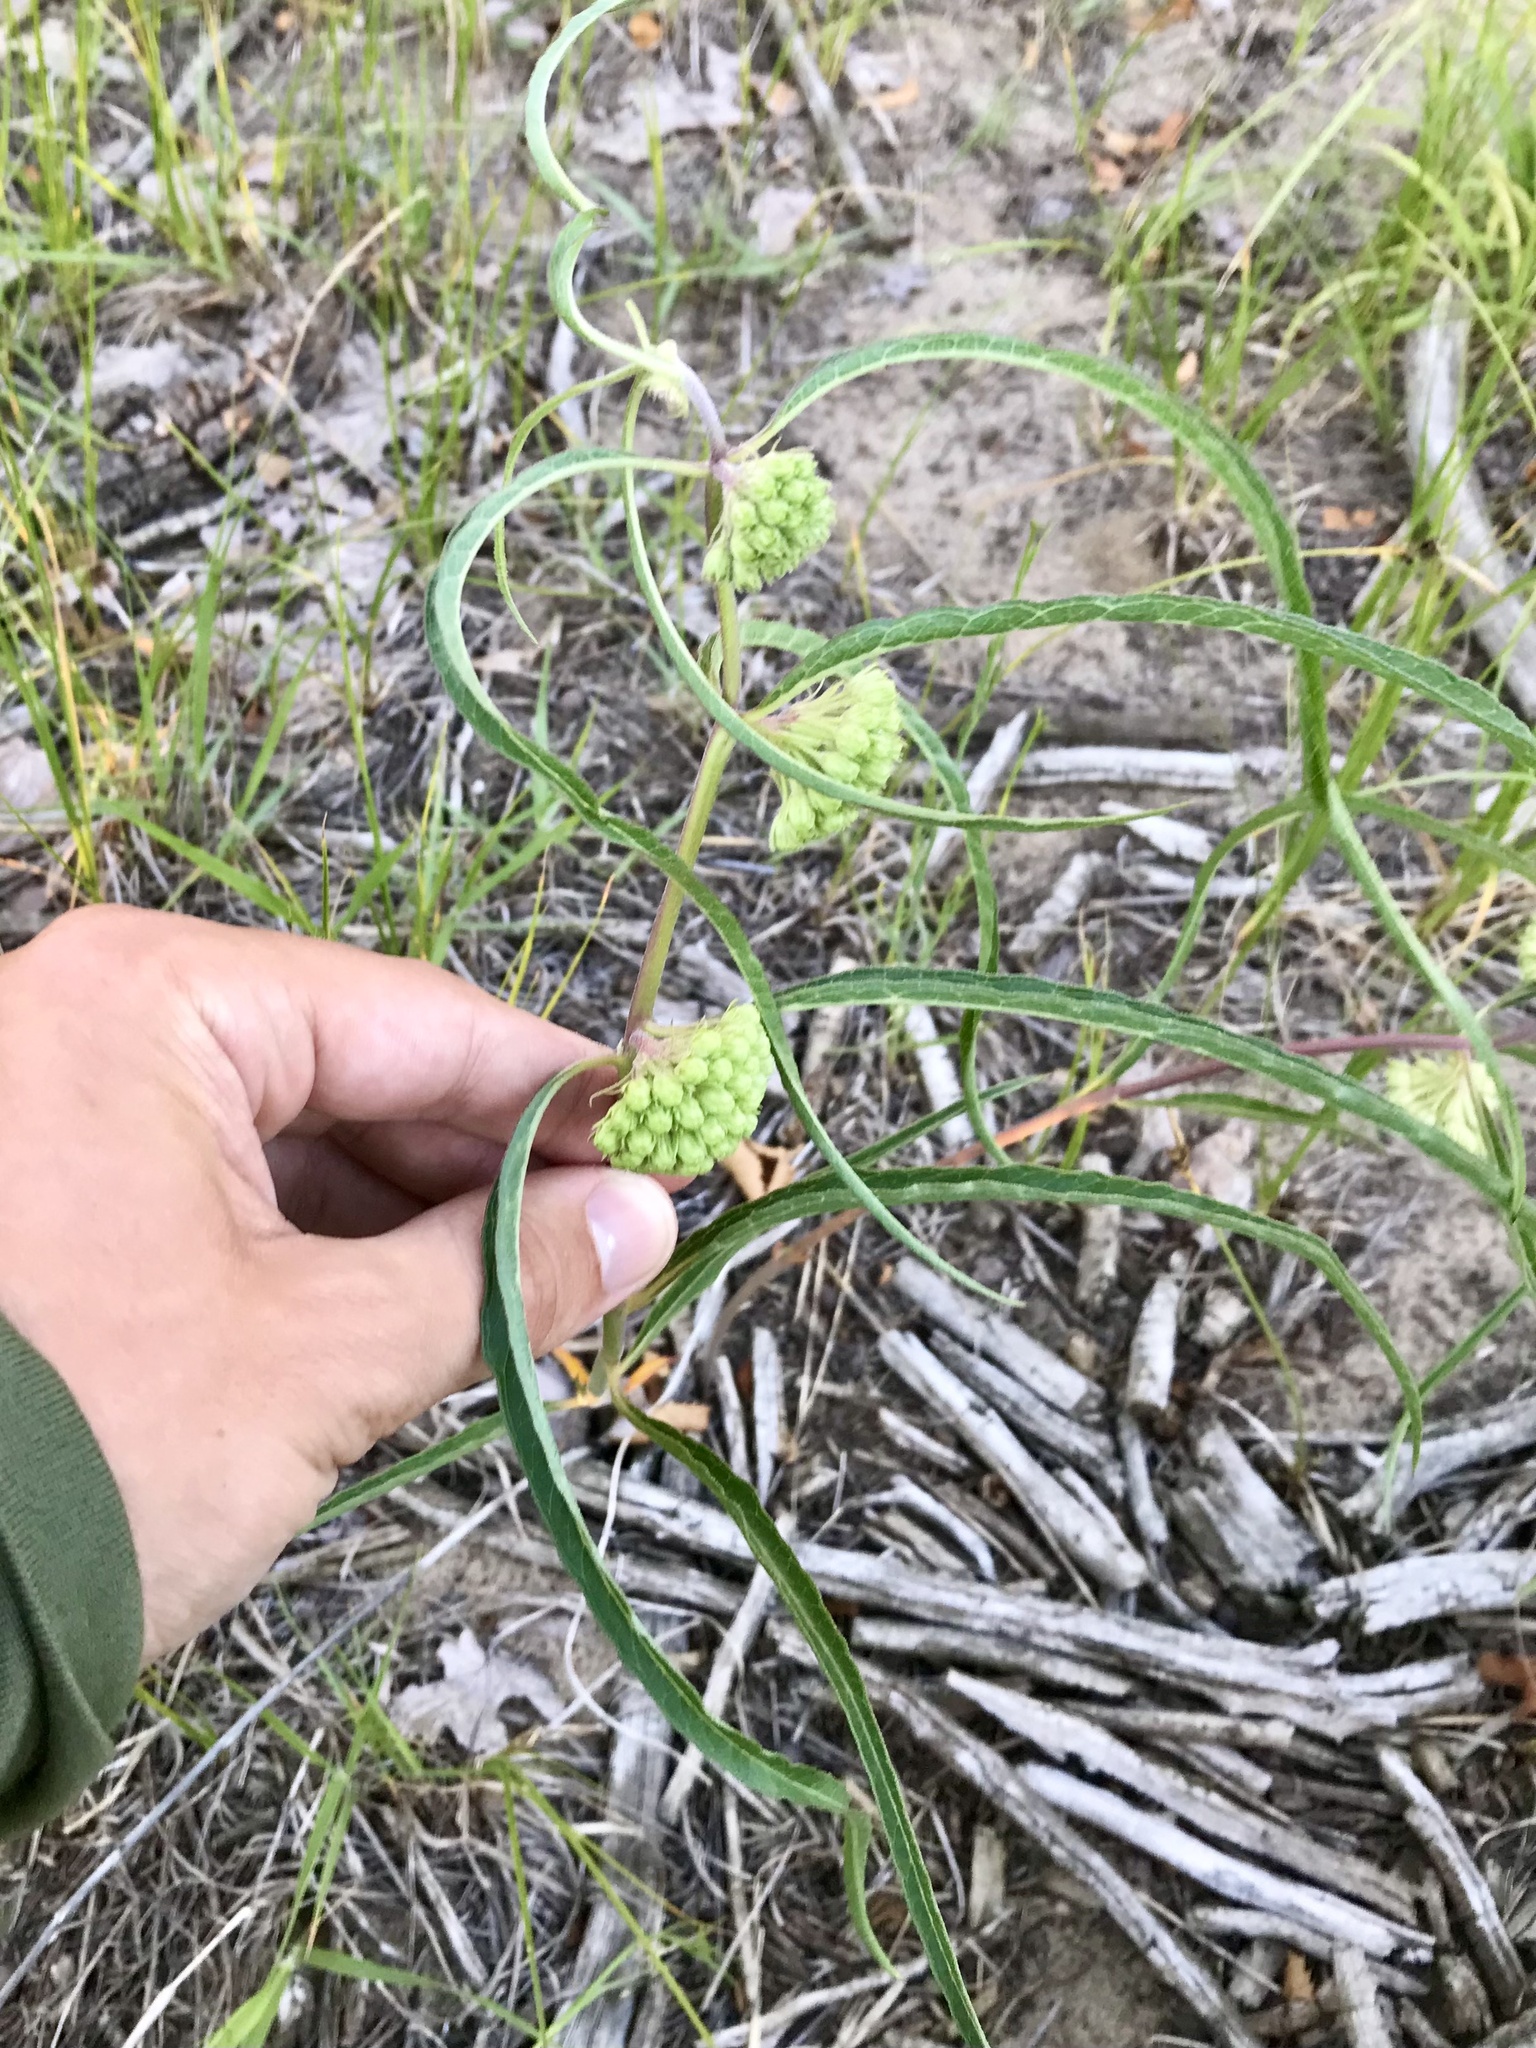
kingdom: Plantae
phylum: Tracheophyta
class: Magnoliopsida
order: Gentianales
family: Apocynaceae
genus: Asclepias
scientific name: Asclepias viridiflora
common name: Green comet milkweed
